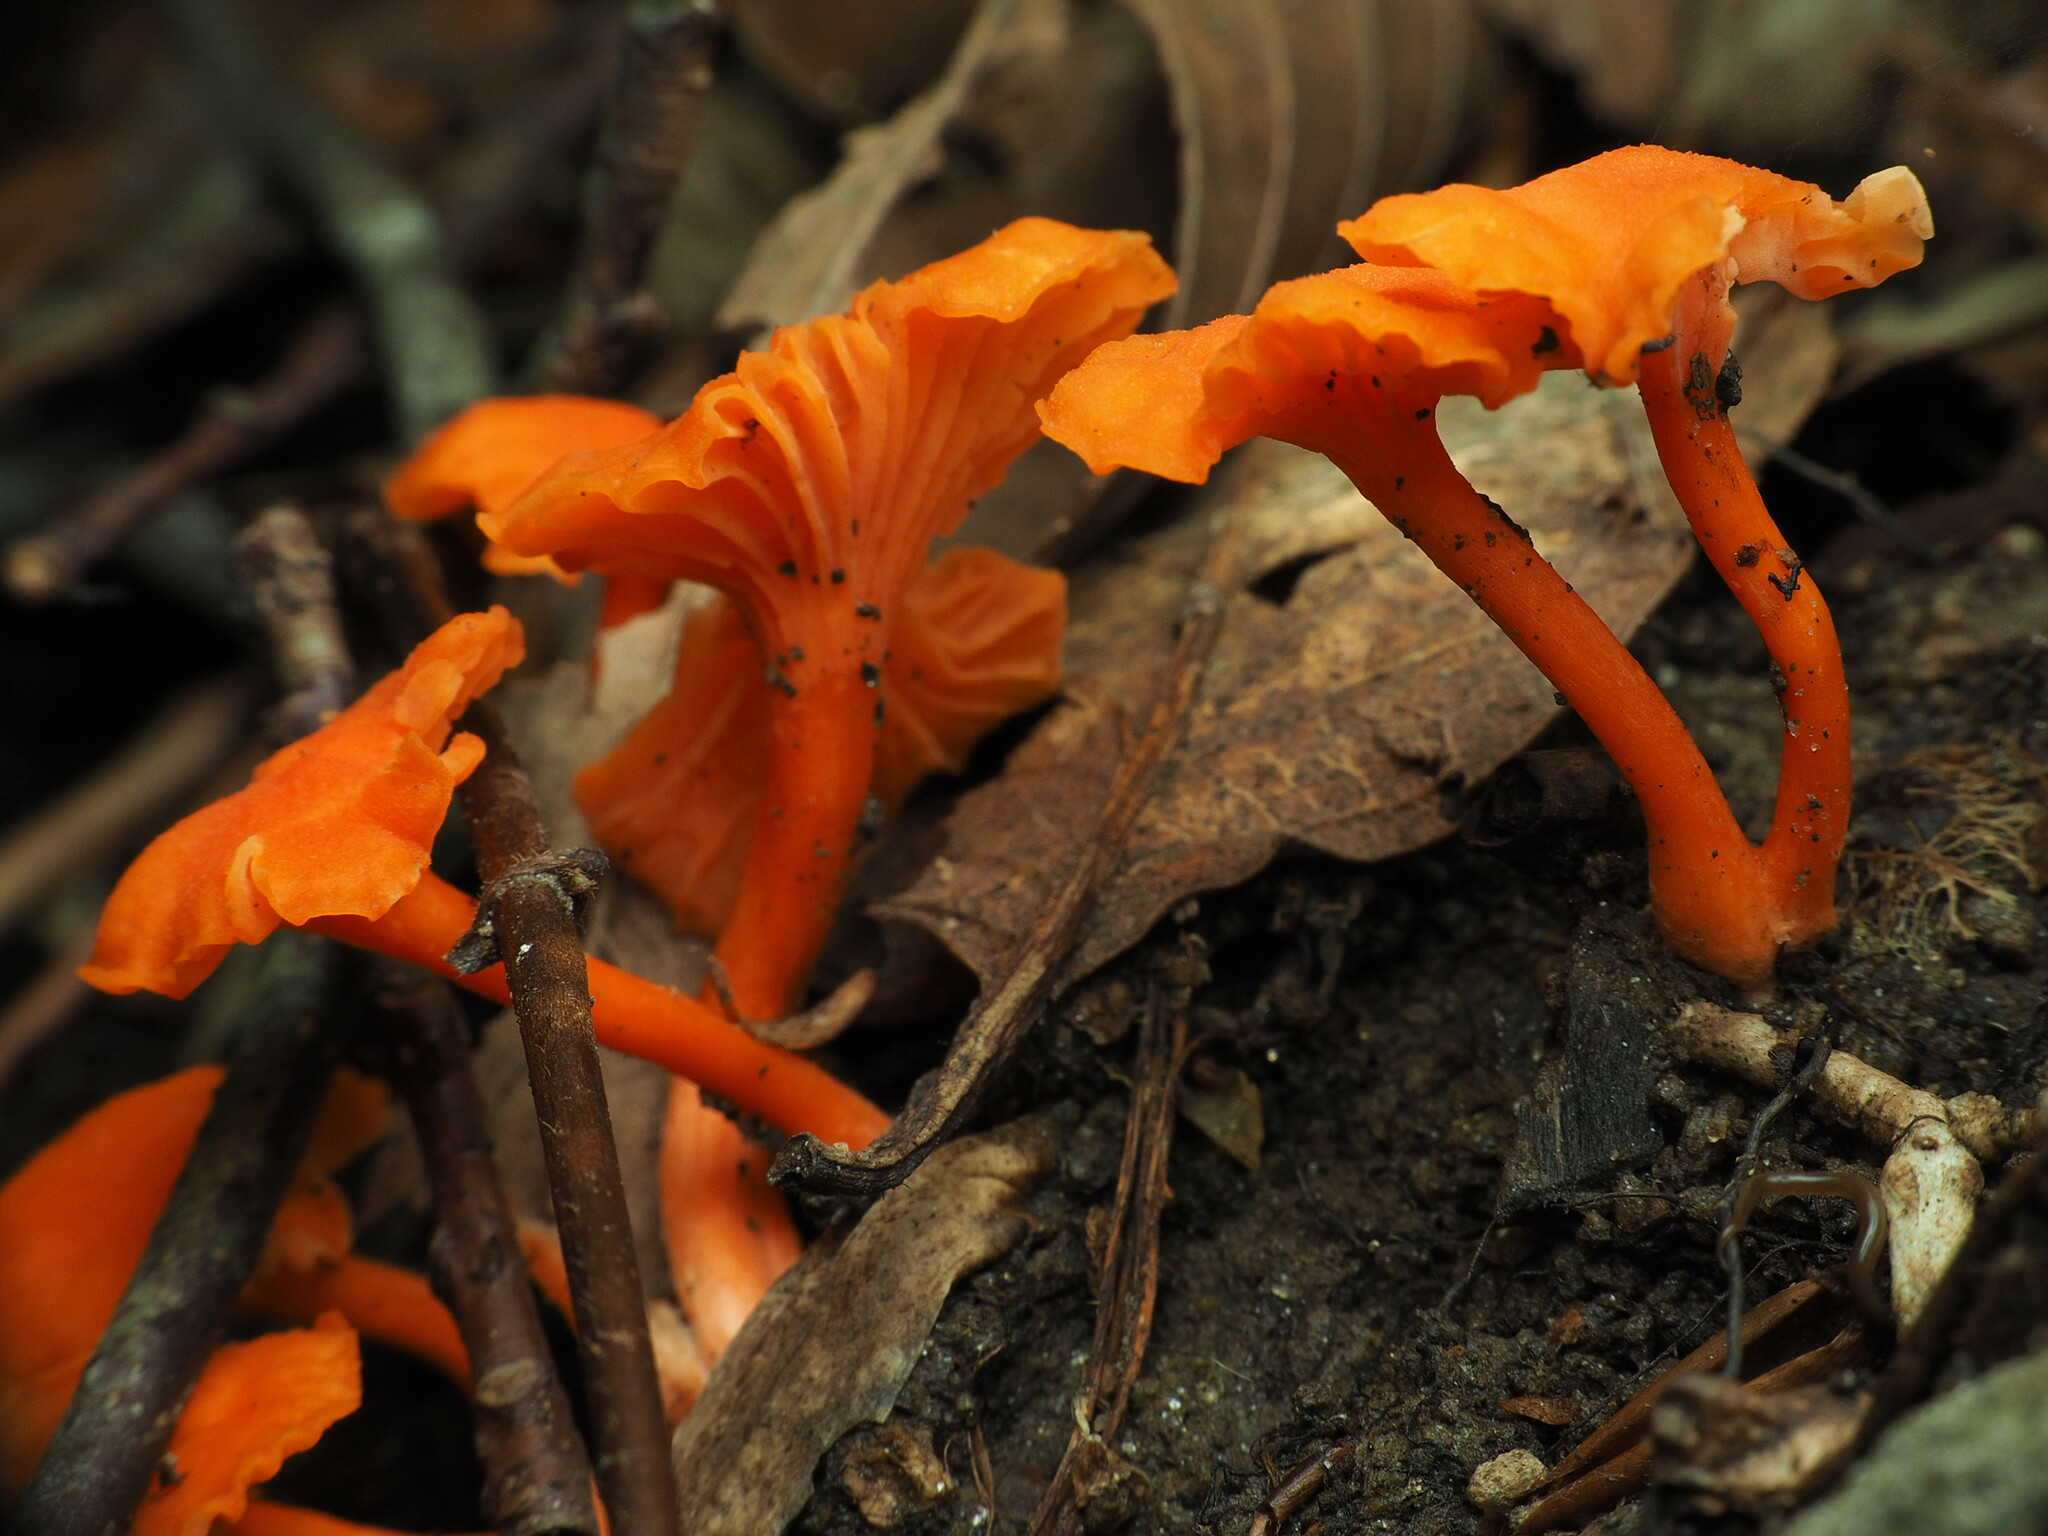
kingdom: Fungi
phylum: Basidiomycota
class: Agaricomycetes
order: Cantharellales
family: Hydnaceae
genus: Cantharellus
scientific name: Cantharellus cinnabarinus
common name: Cinnabar chanterelle
